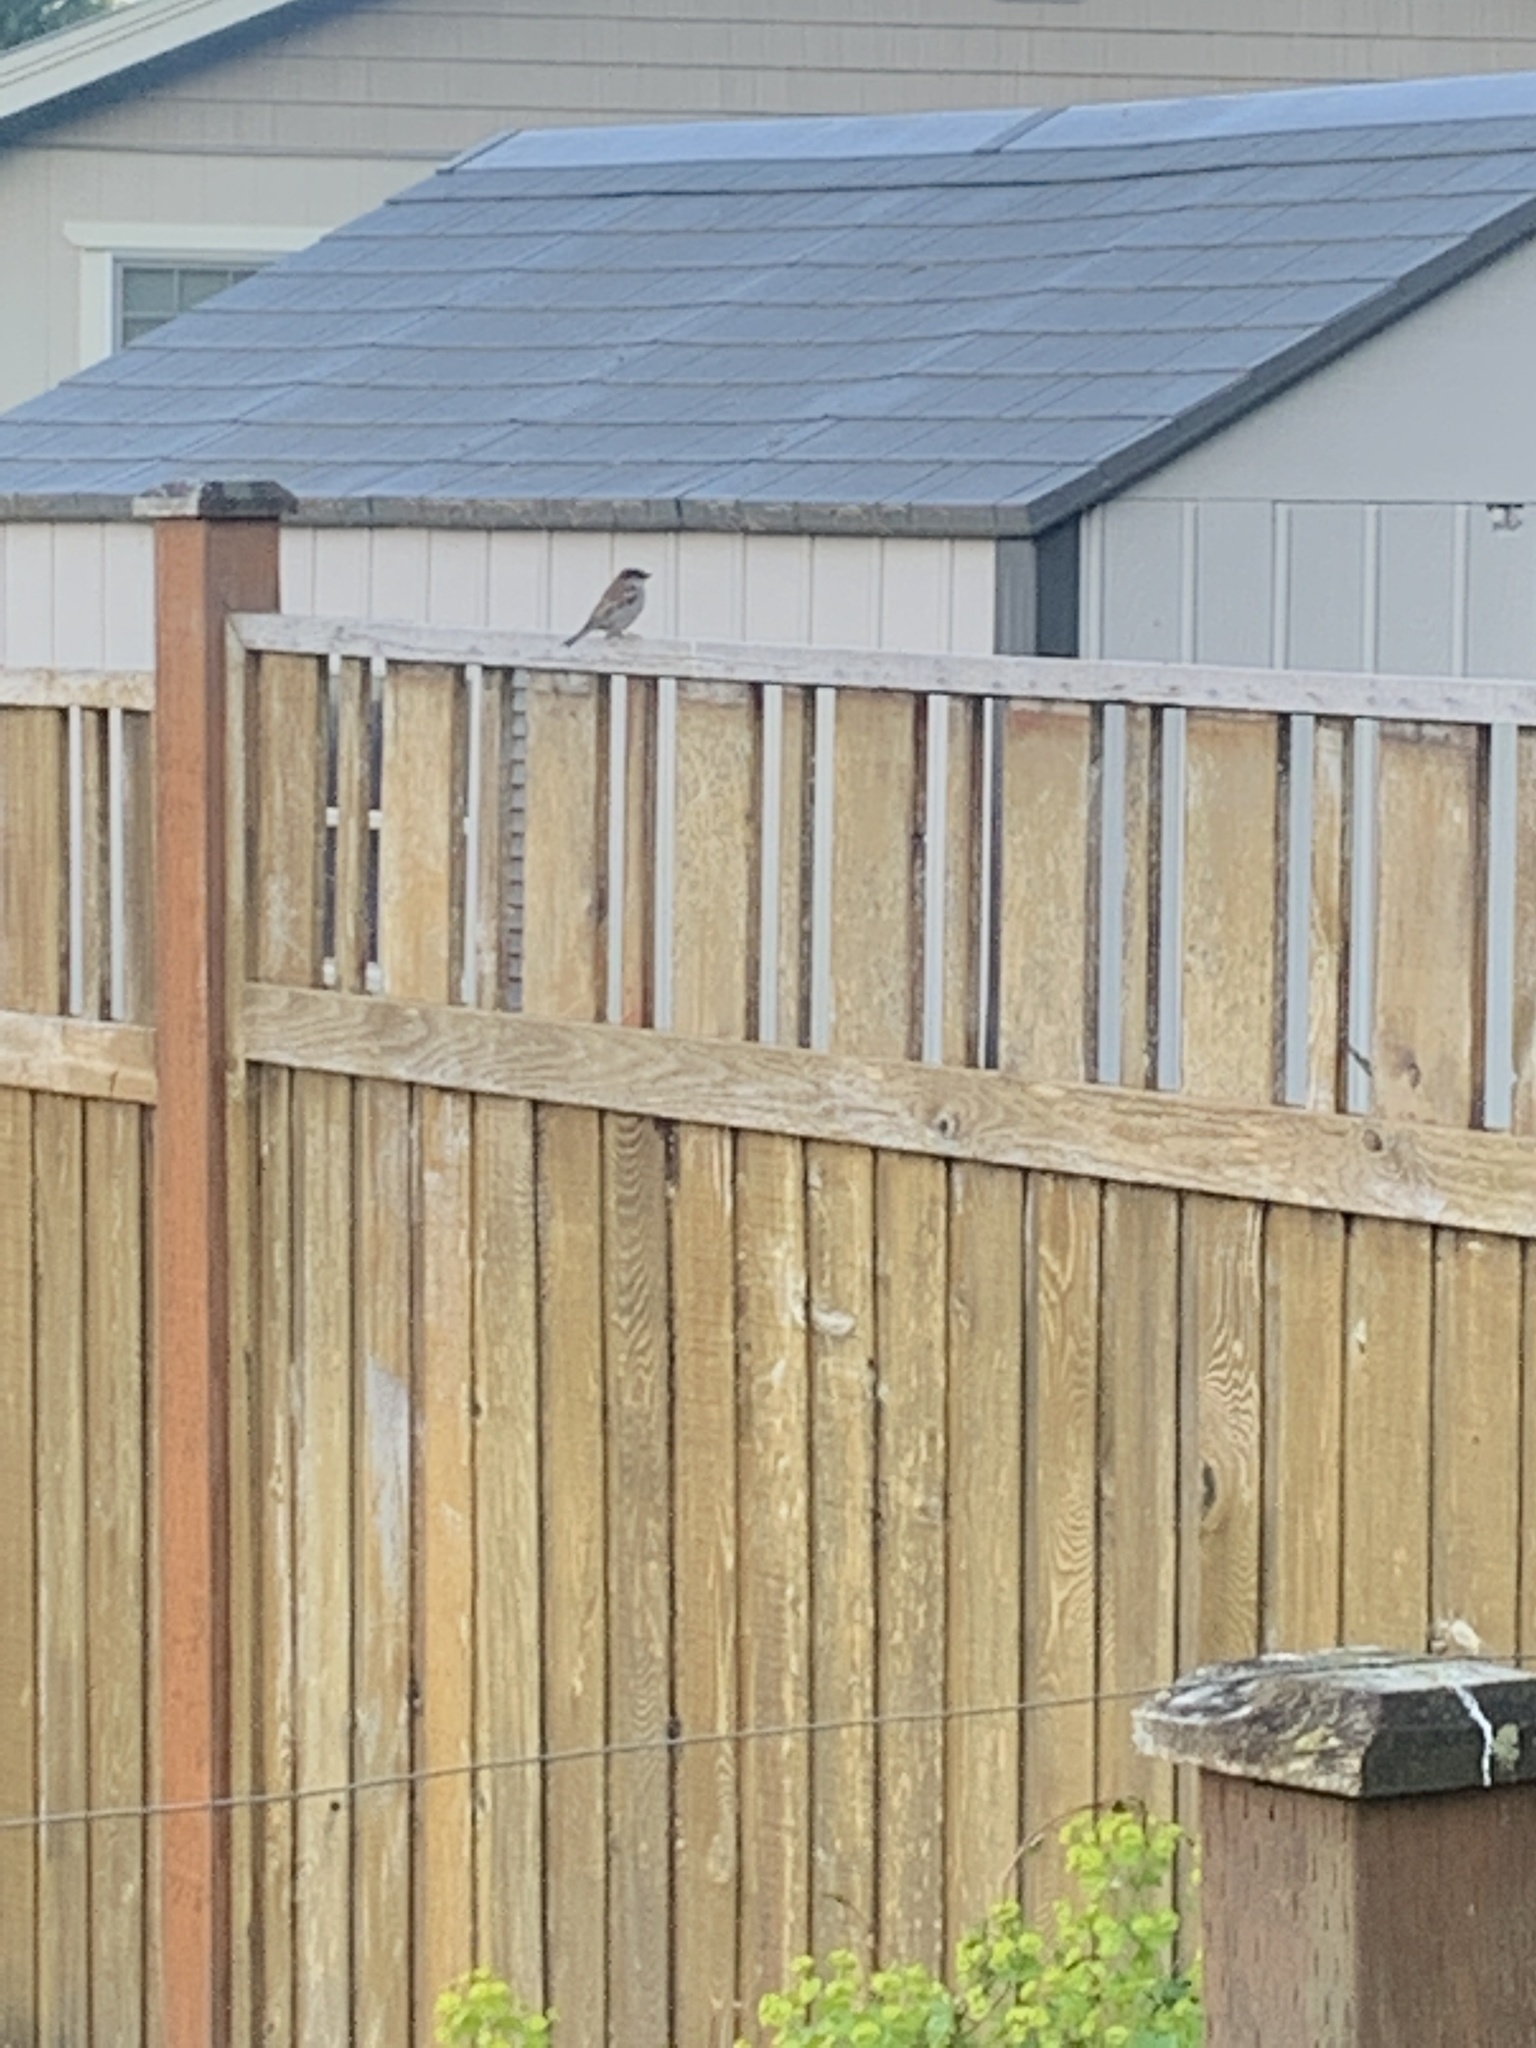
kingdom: Animalia
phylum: Chordata
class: Aves
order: Passeriformes
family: Passeridae
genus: Passer
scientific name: Passer domesticus
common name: House sparrow
